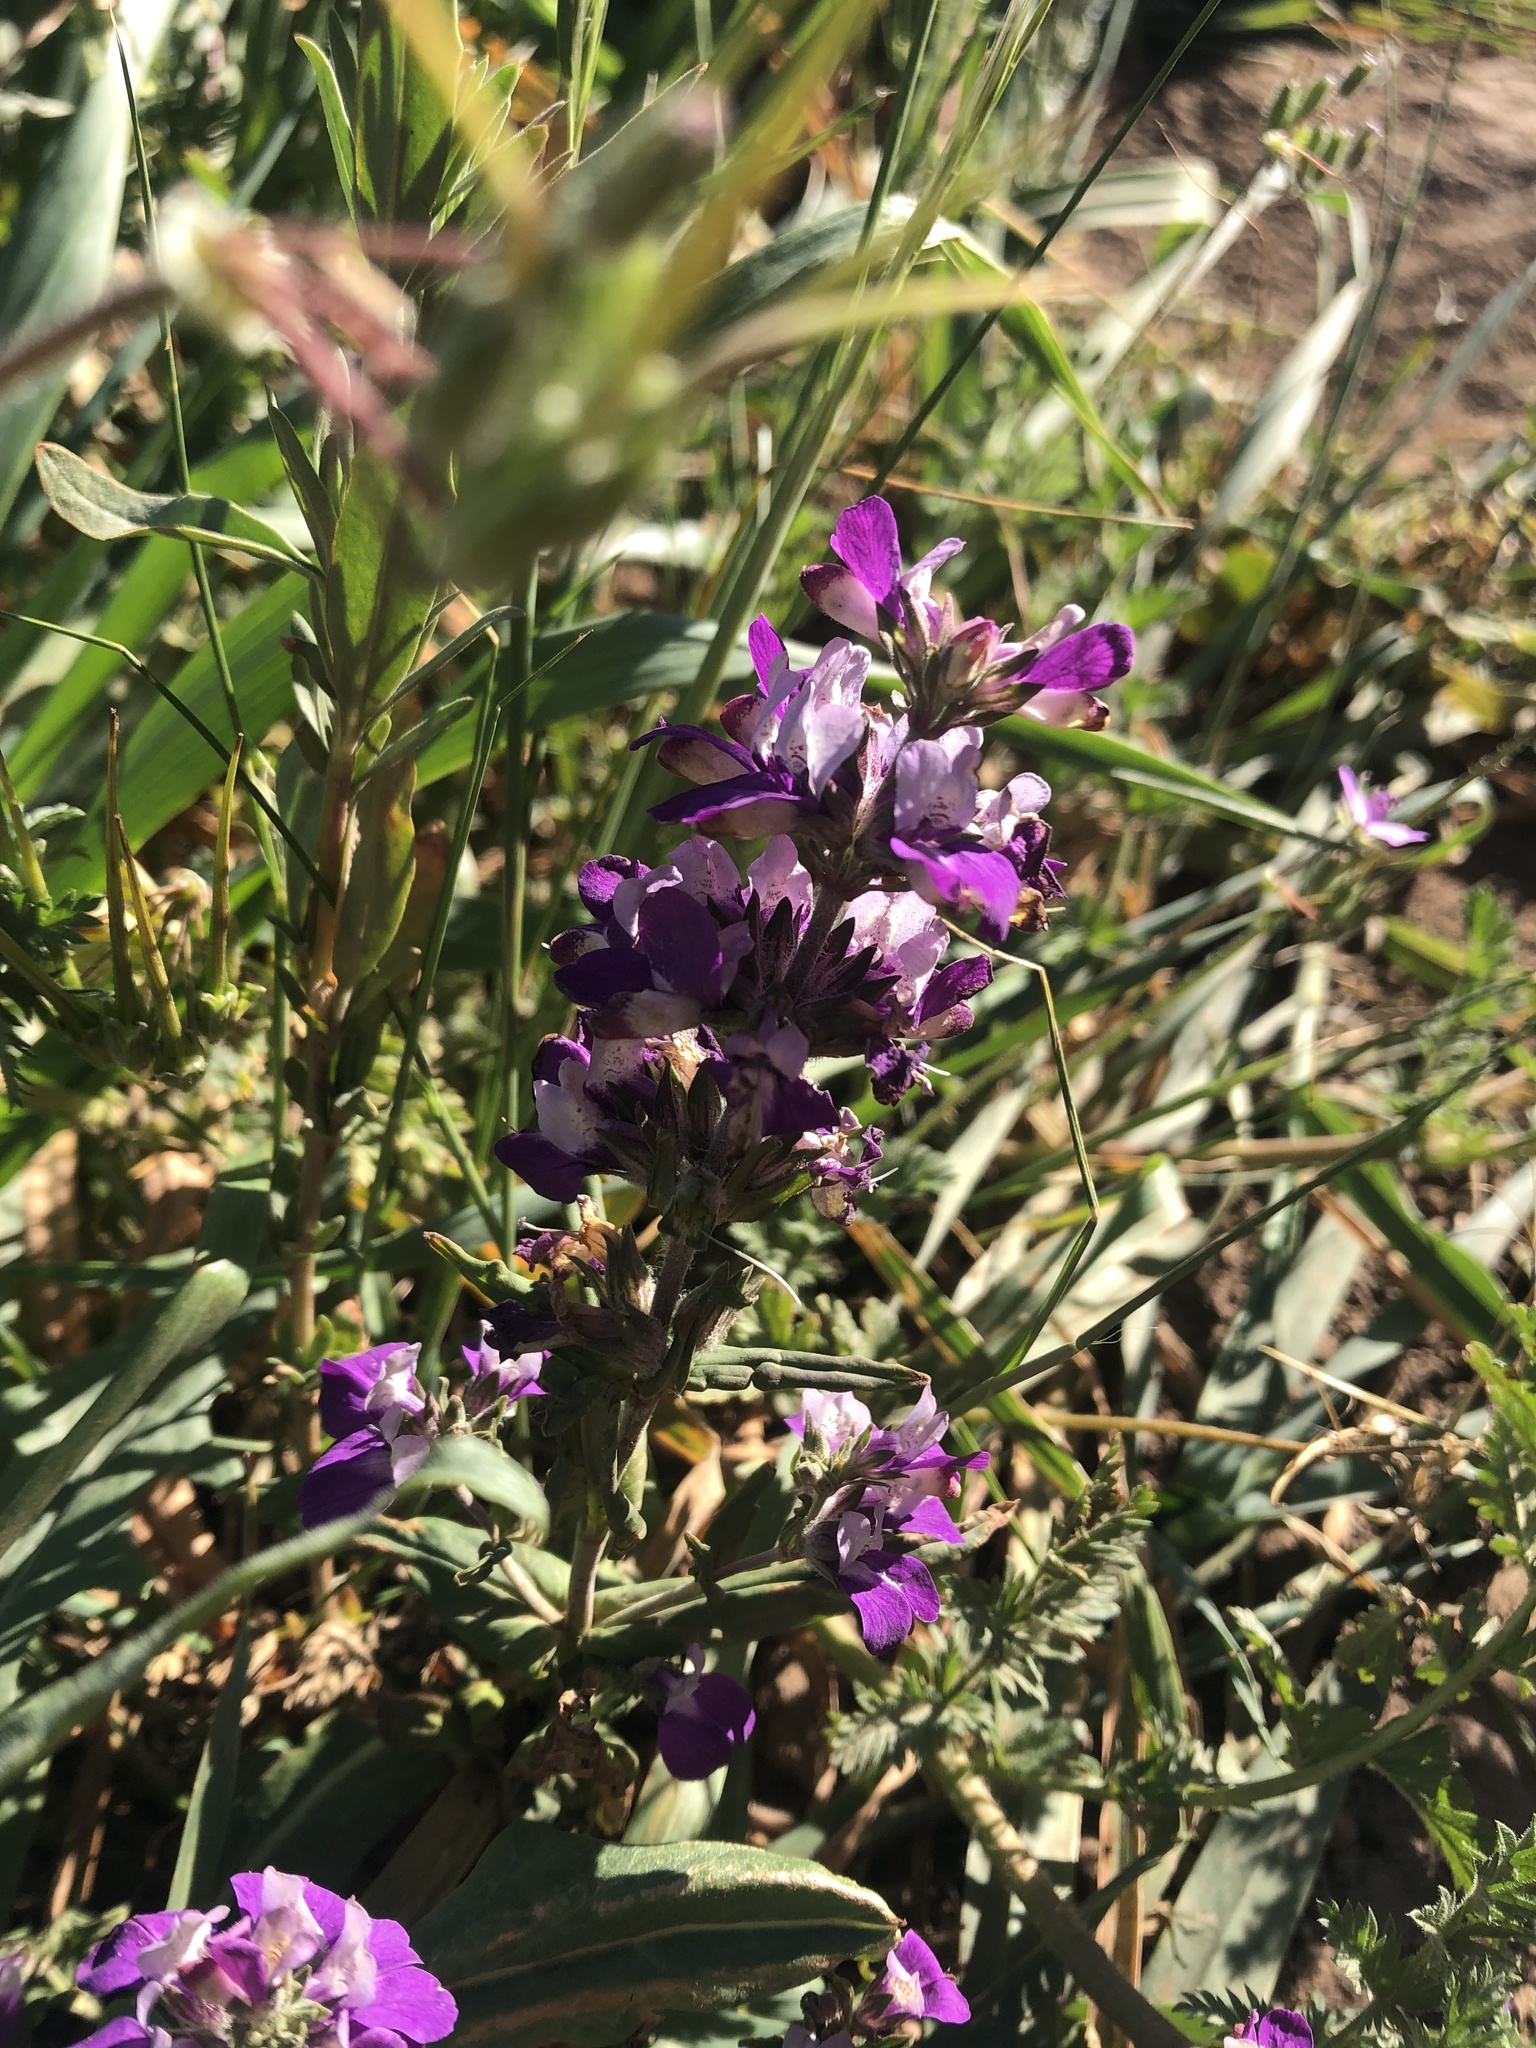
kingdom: Plantae
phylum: Tracheophyta
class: Magnoliopsida
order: Lamiales
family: Plantaginaceae
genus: Collinsia
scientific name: Collinsia heterophylla
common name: Chinese-houses
